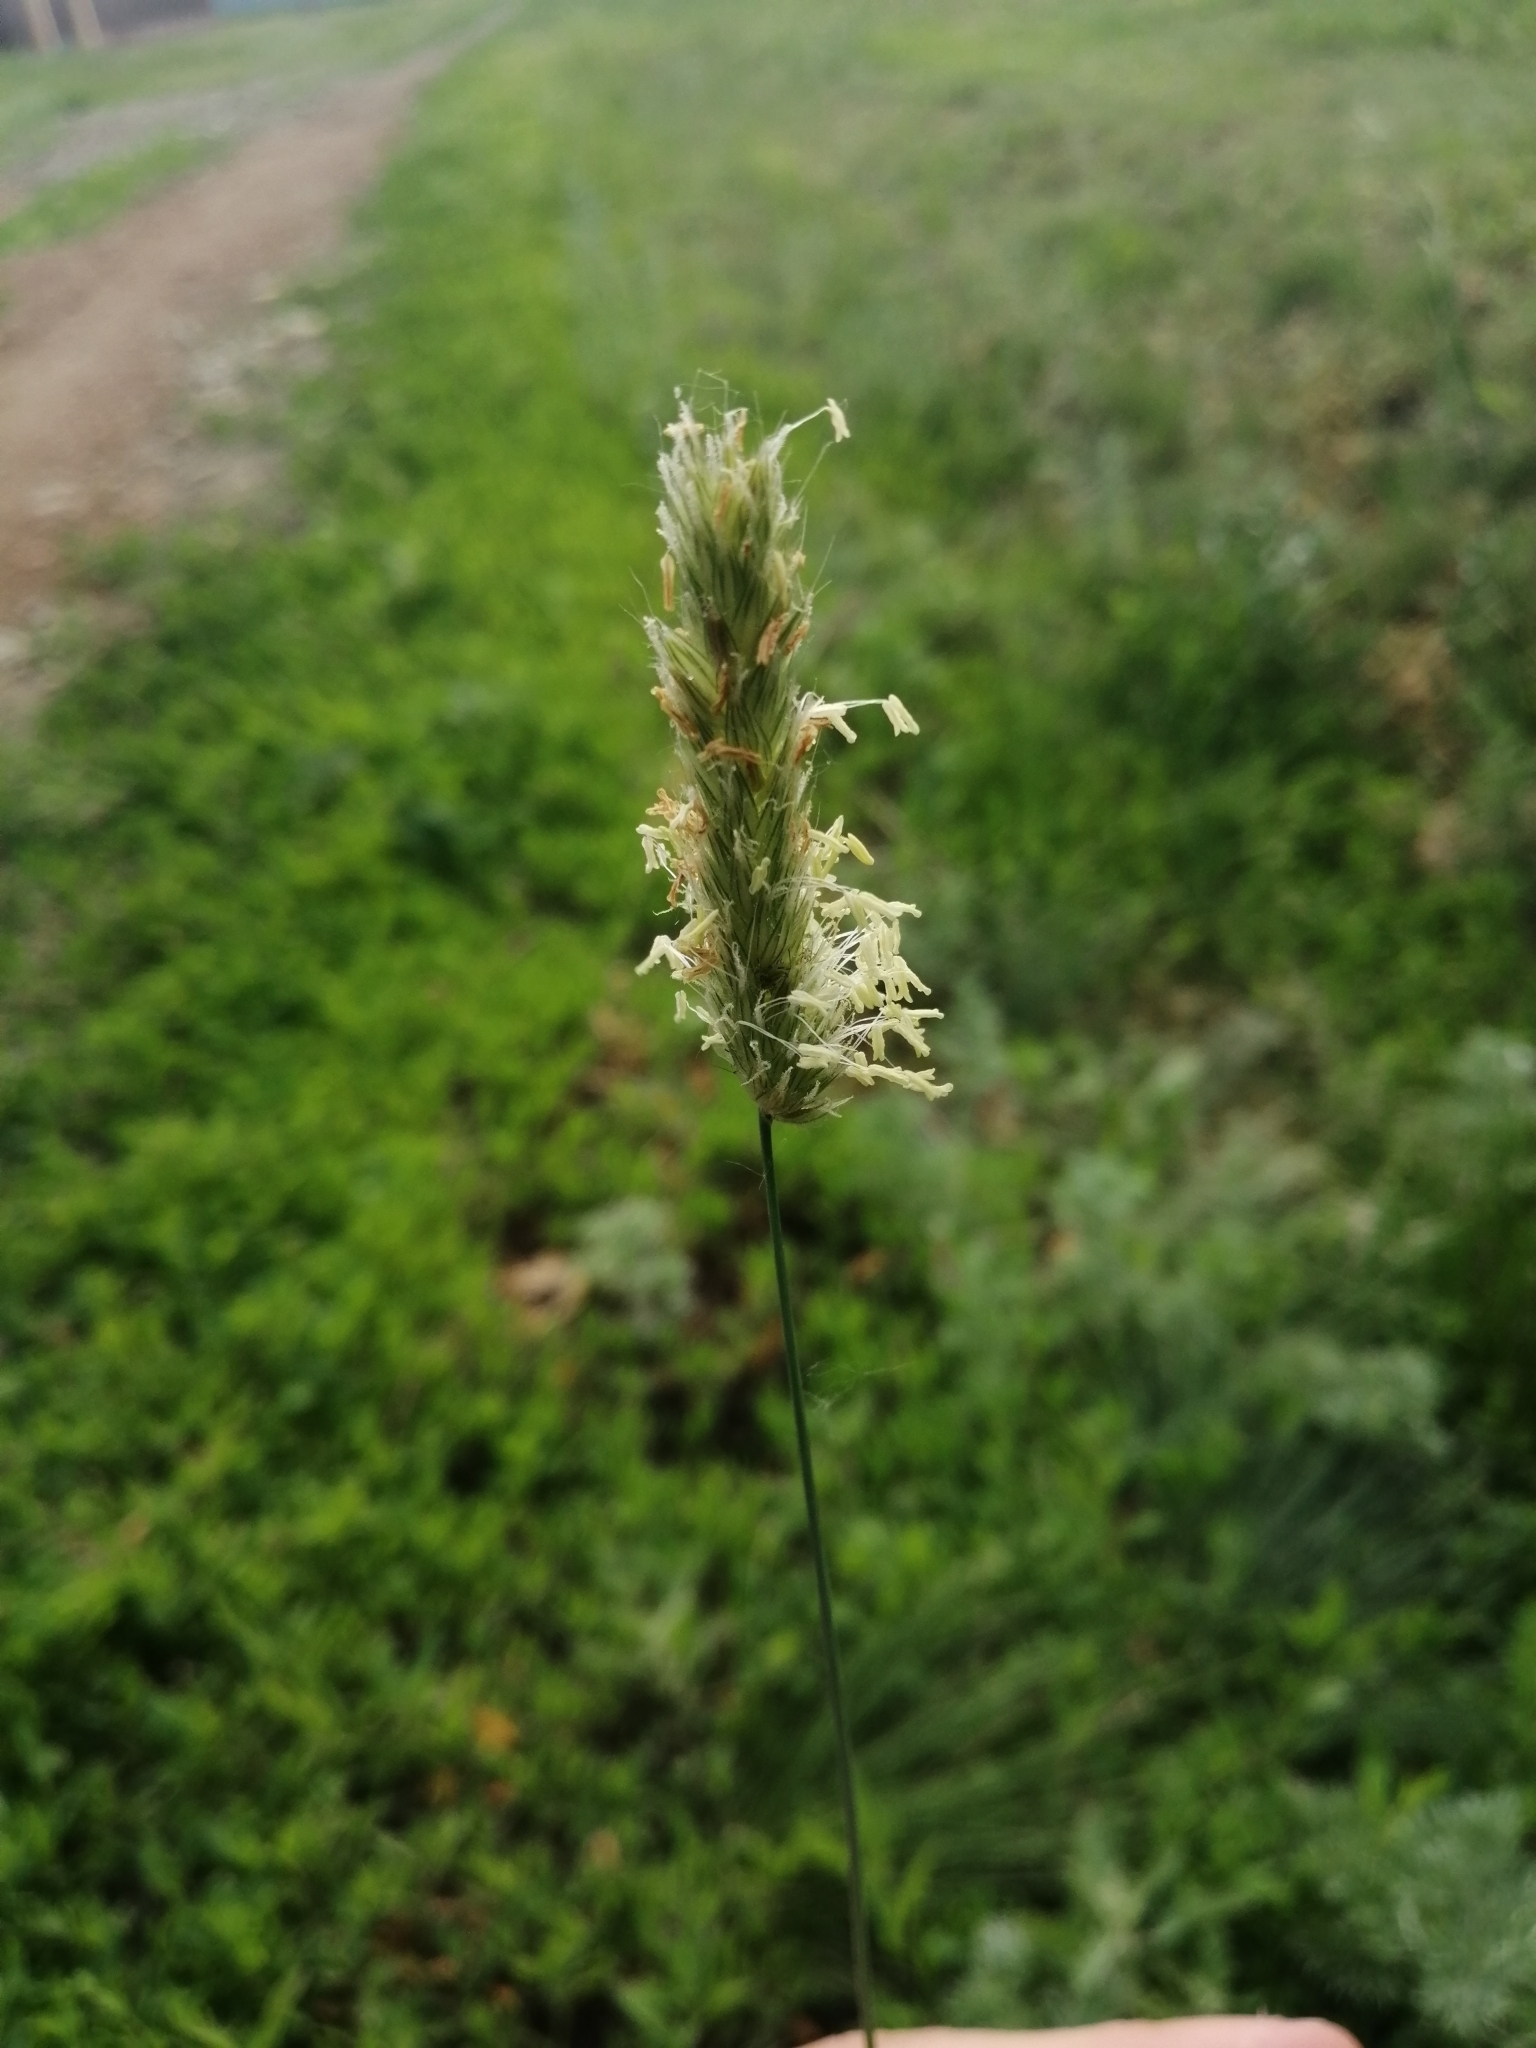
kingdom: Plantae
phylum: Tracheophyta
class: Liliopsida
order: Poales
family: Poaceae
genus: Alopecurus
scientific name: Alopecurus pratensis
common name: Meadow foxtail
